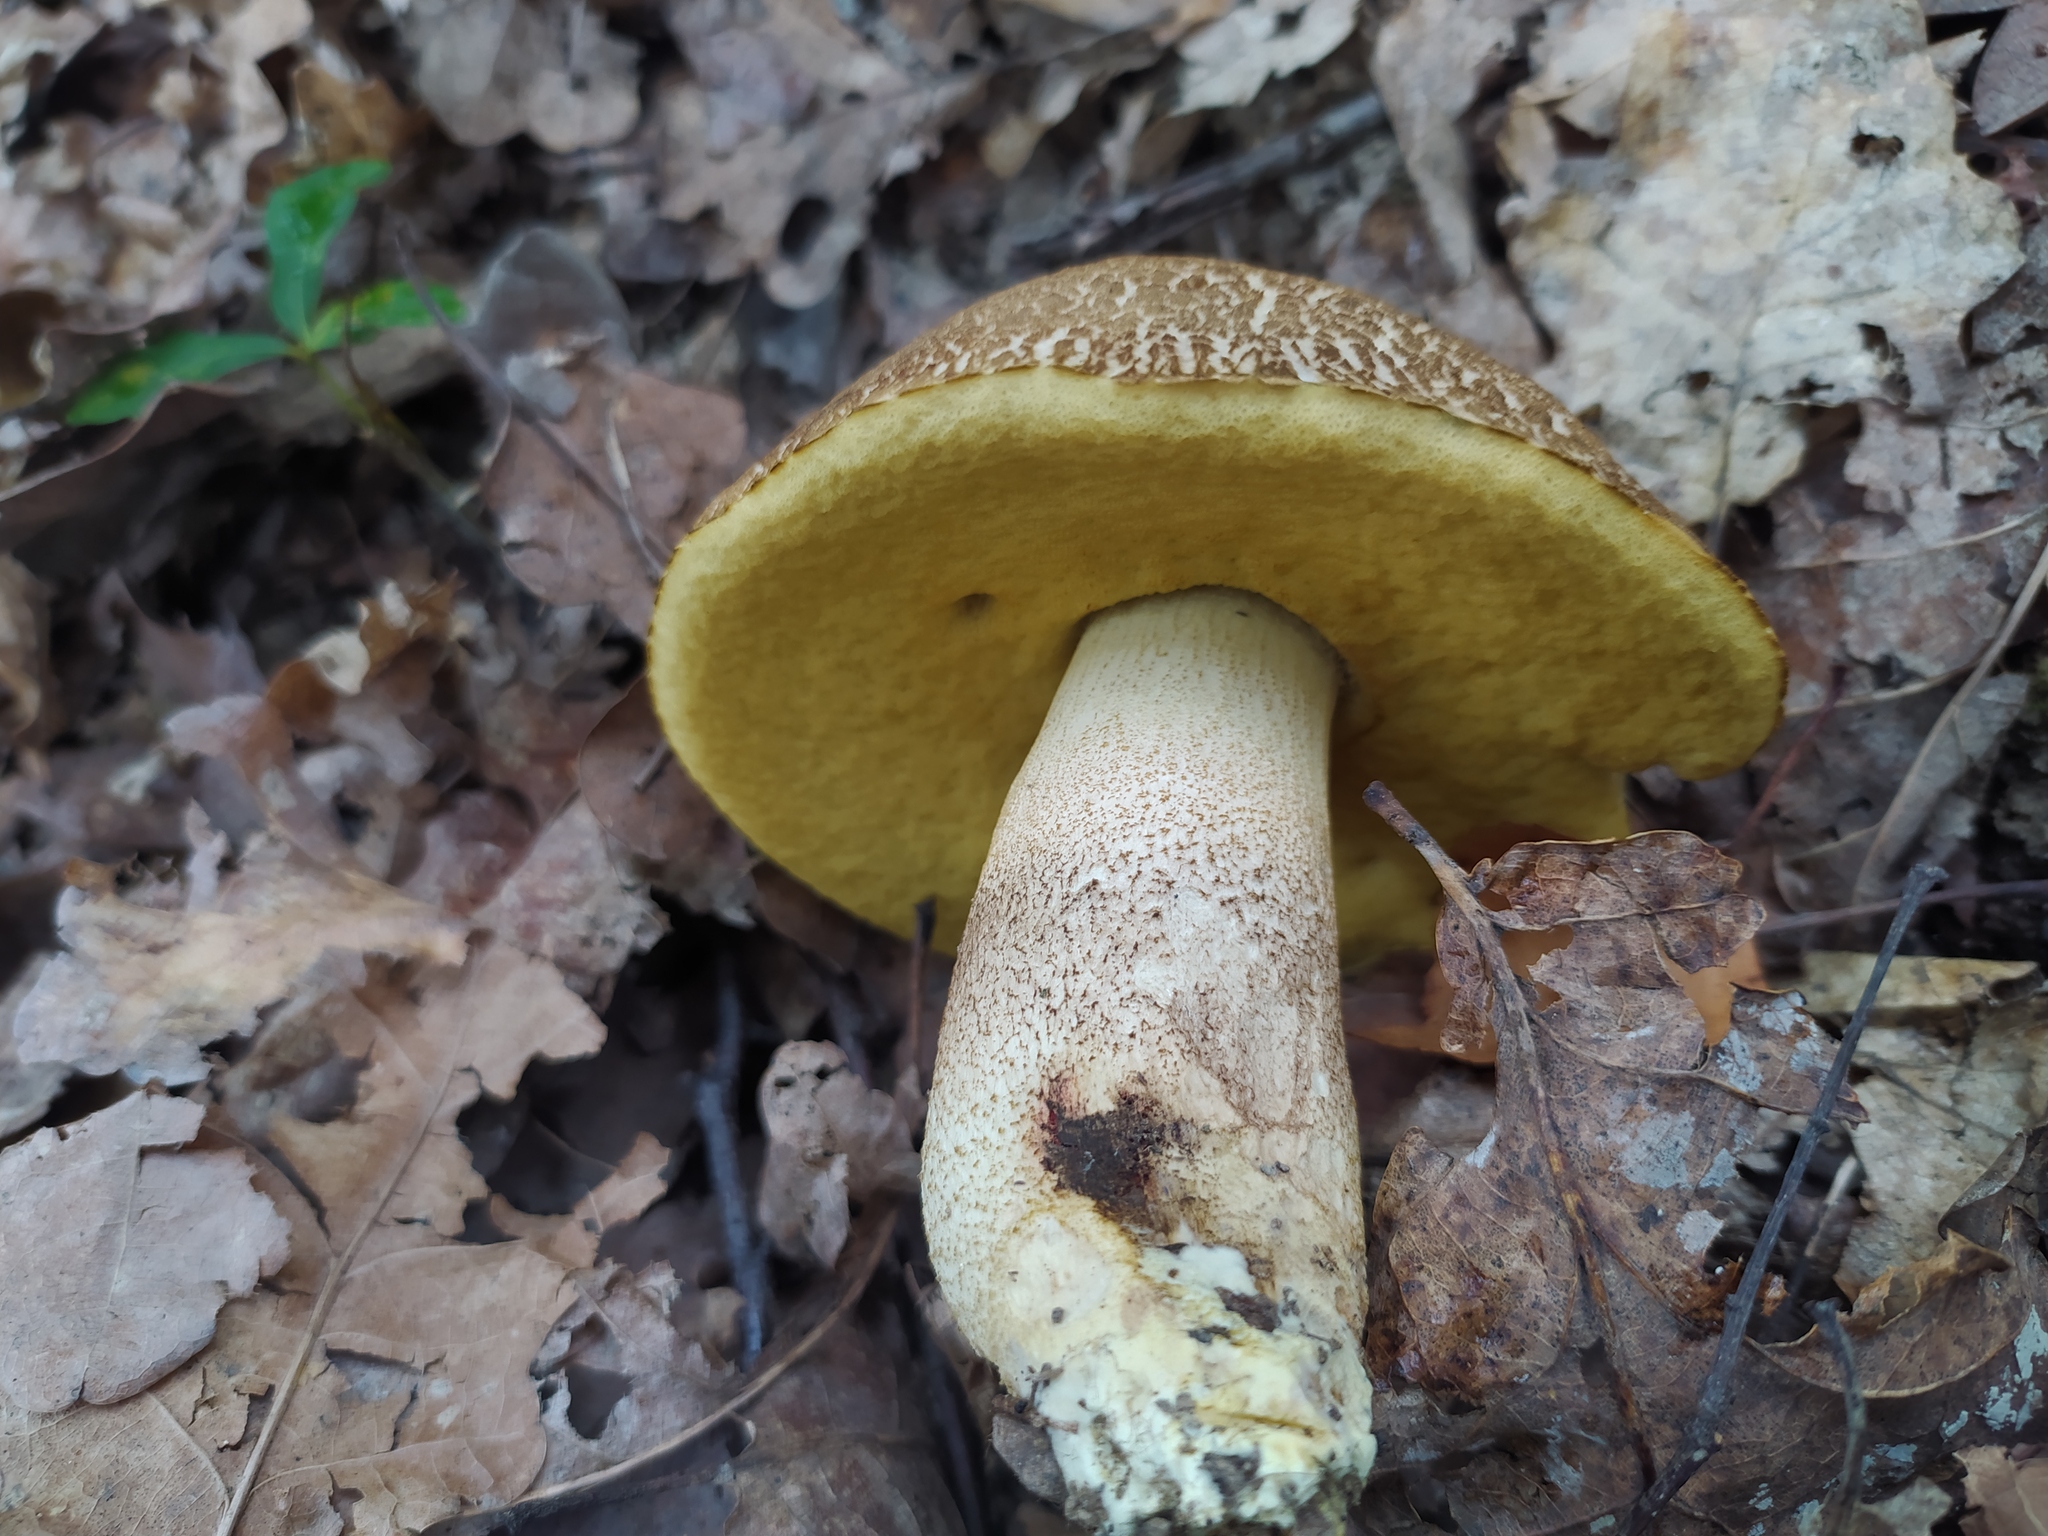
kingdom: Fungi
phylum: Basidiomycota
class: Agaricomycetes
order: Boletales
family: Boletaceae
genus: Leccinellum
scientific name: Leccinellum crocipodium
